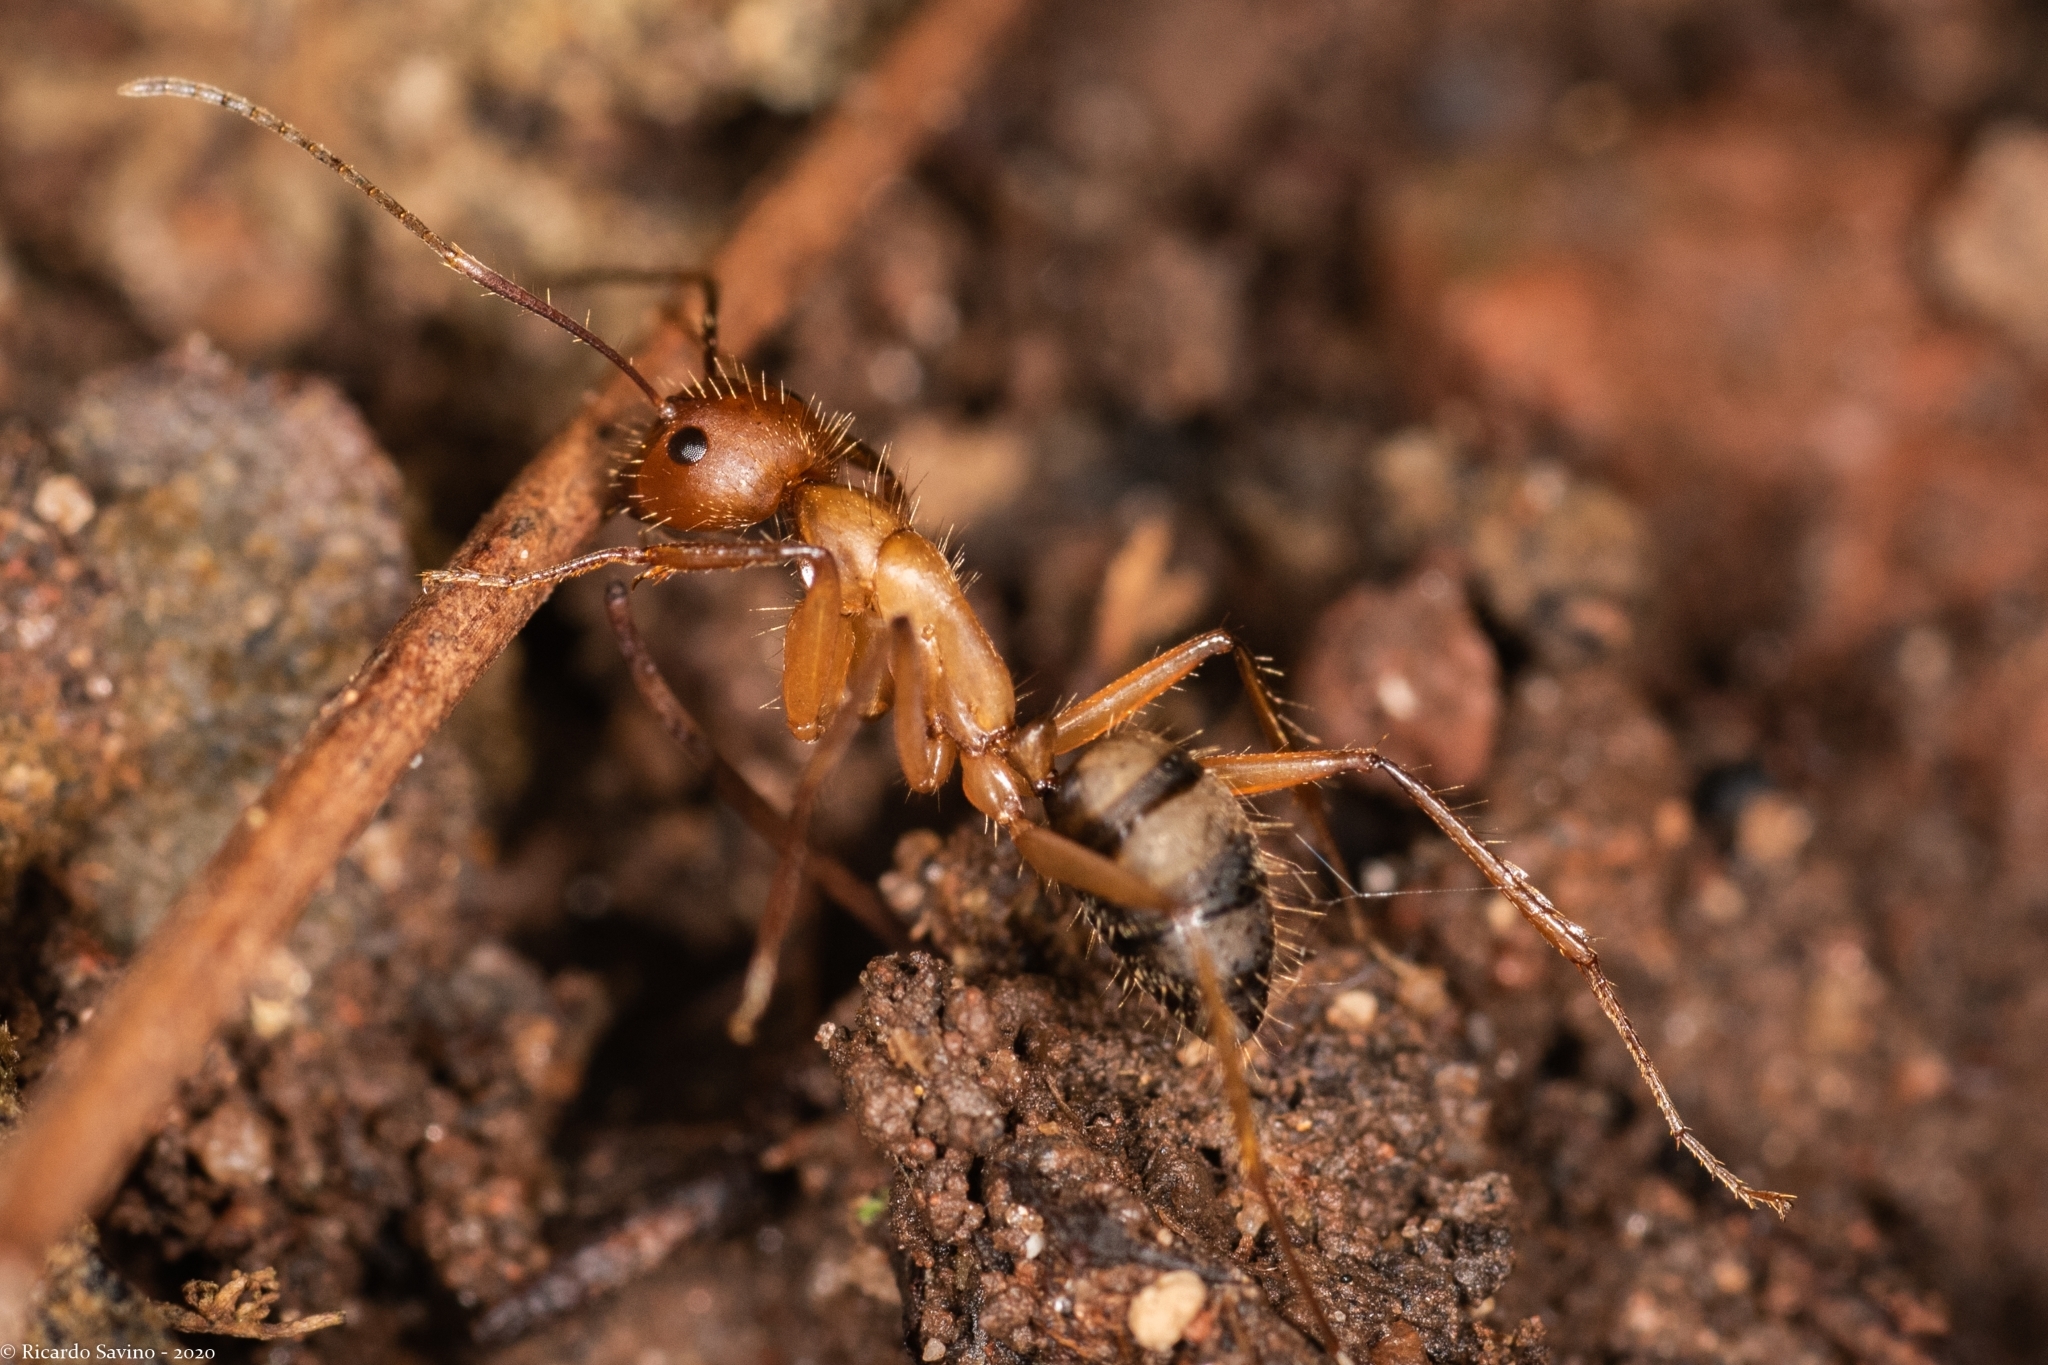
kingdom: Animalia
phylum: Arthropoda
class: Insecta
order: Hymenoptera
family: Formicidae
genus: Camponotus
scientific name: Camponotus cingulatus
